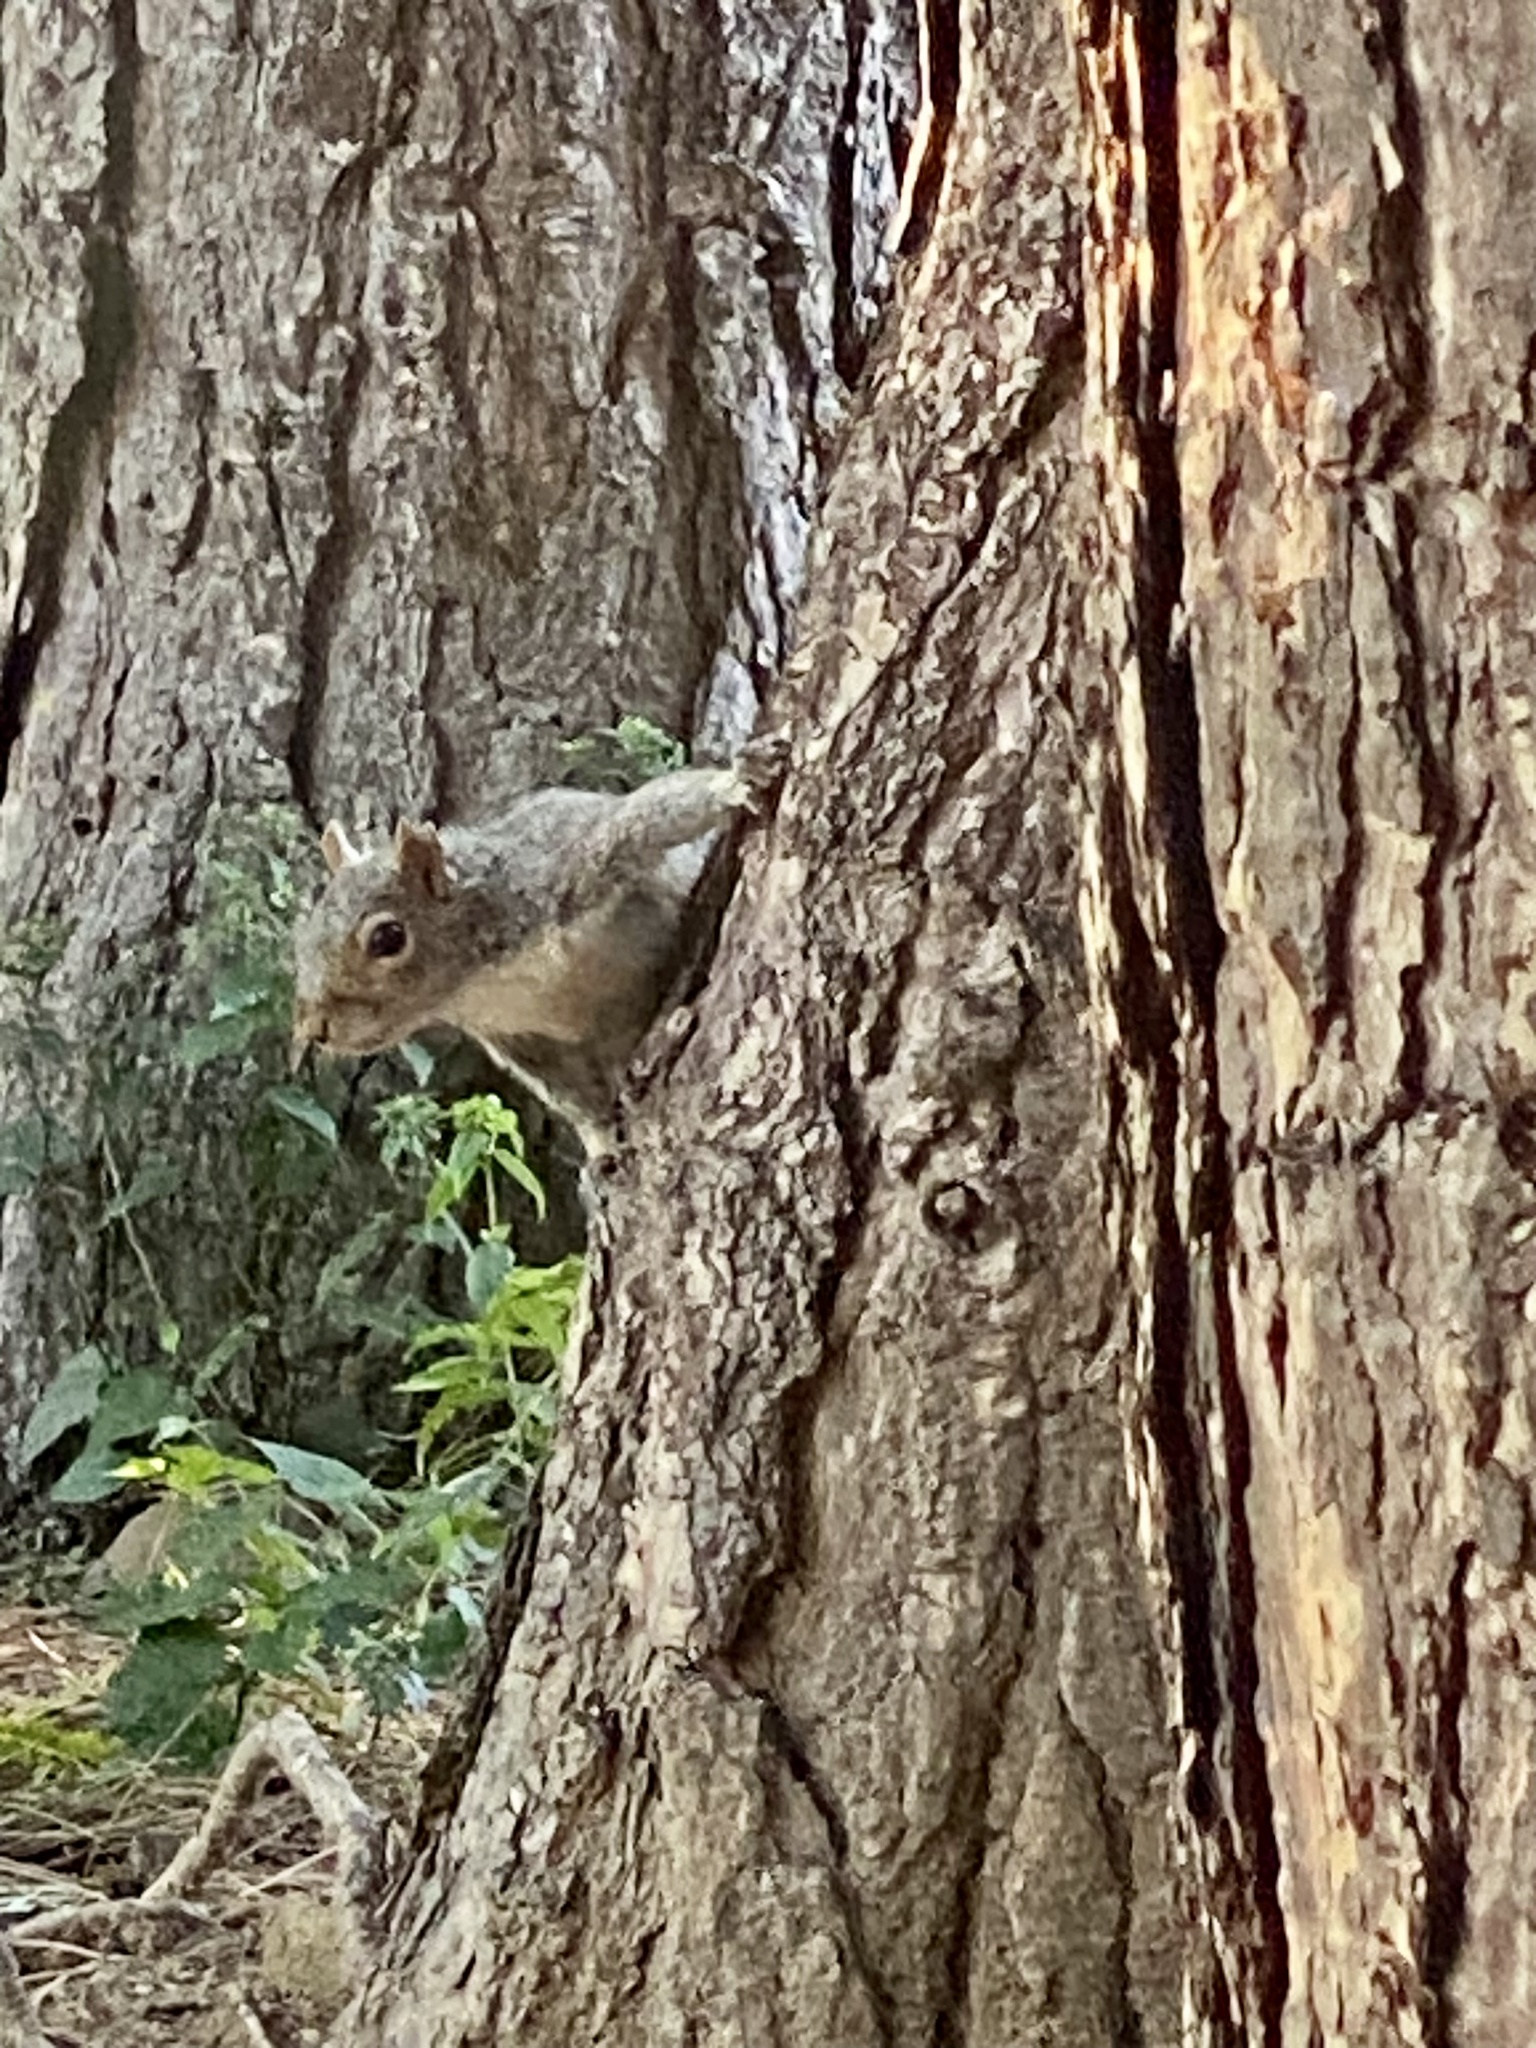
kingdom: Animalia
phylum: Chordata
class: Mammalia
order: Rodentia
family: Sciuridae
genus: Sciurus
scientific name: Sciurus carolinensis
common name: Eastern gray squirrel
